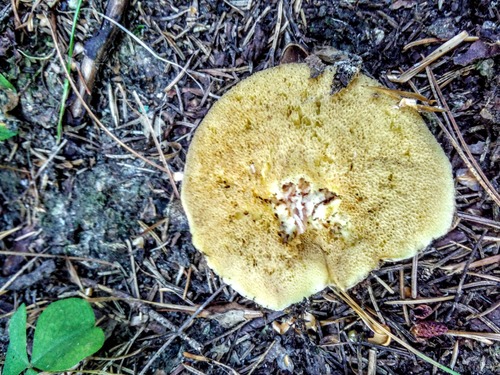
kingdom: Fungi
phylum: Basidiomycota
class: Agaricomycetes
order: Boletales
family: Suillaceae
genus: Suillus
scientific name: Suillus placidus
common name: Slippery white bolete
